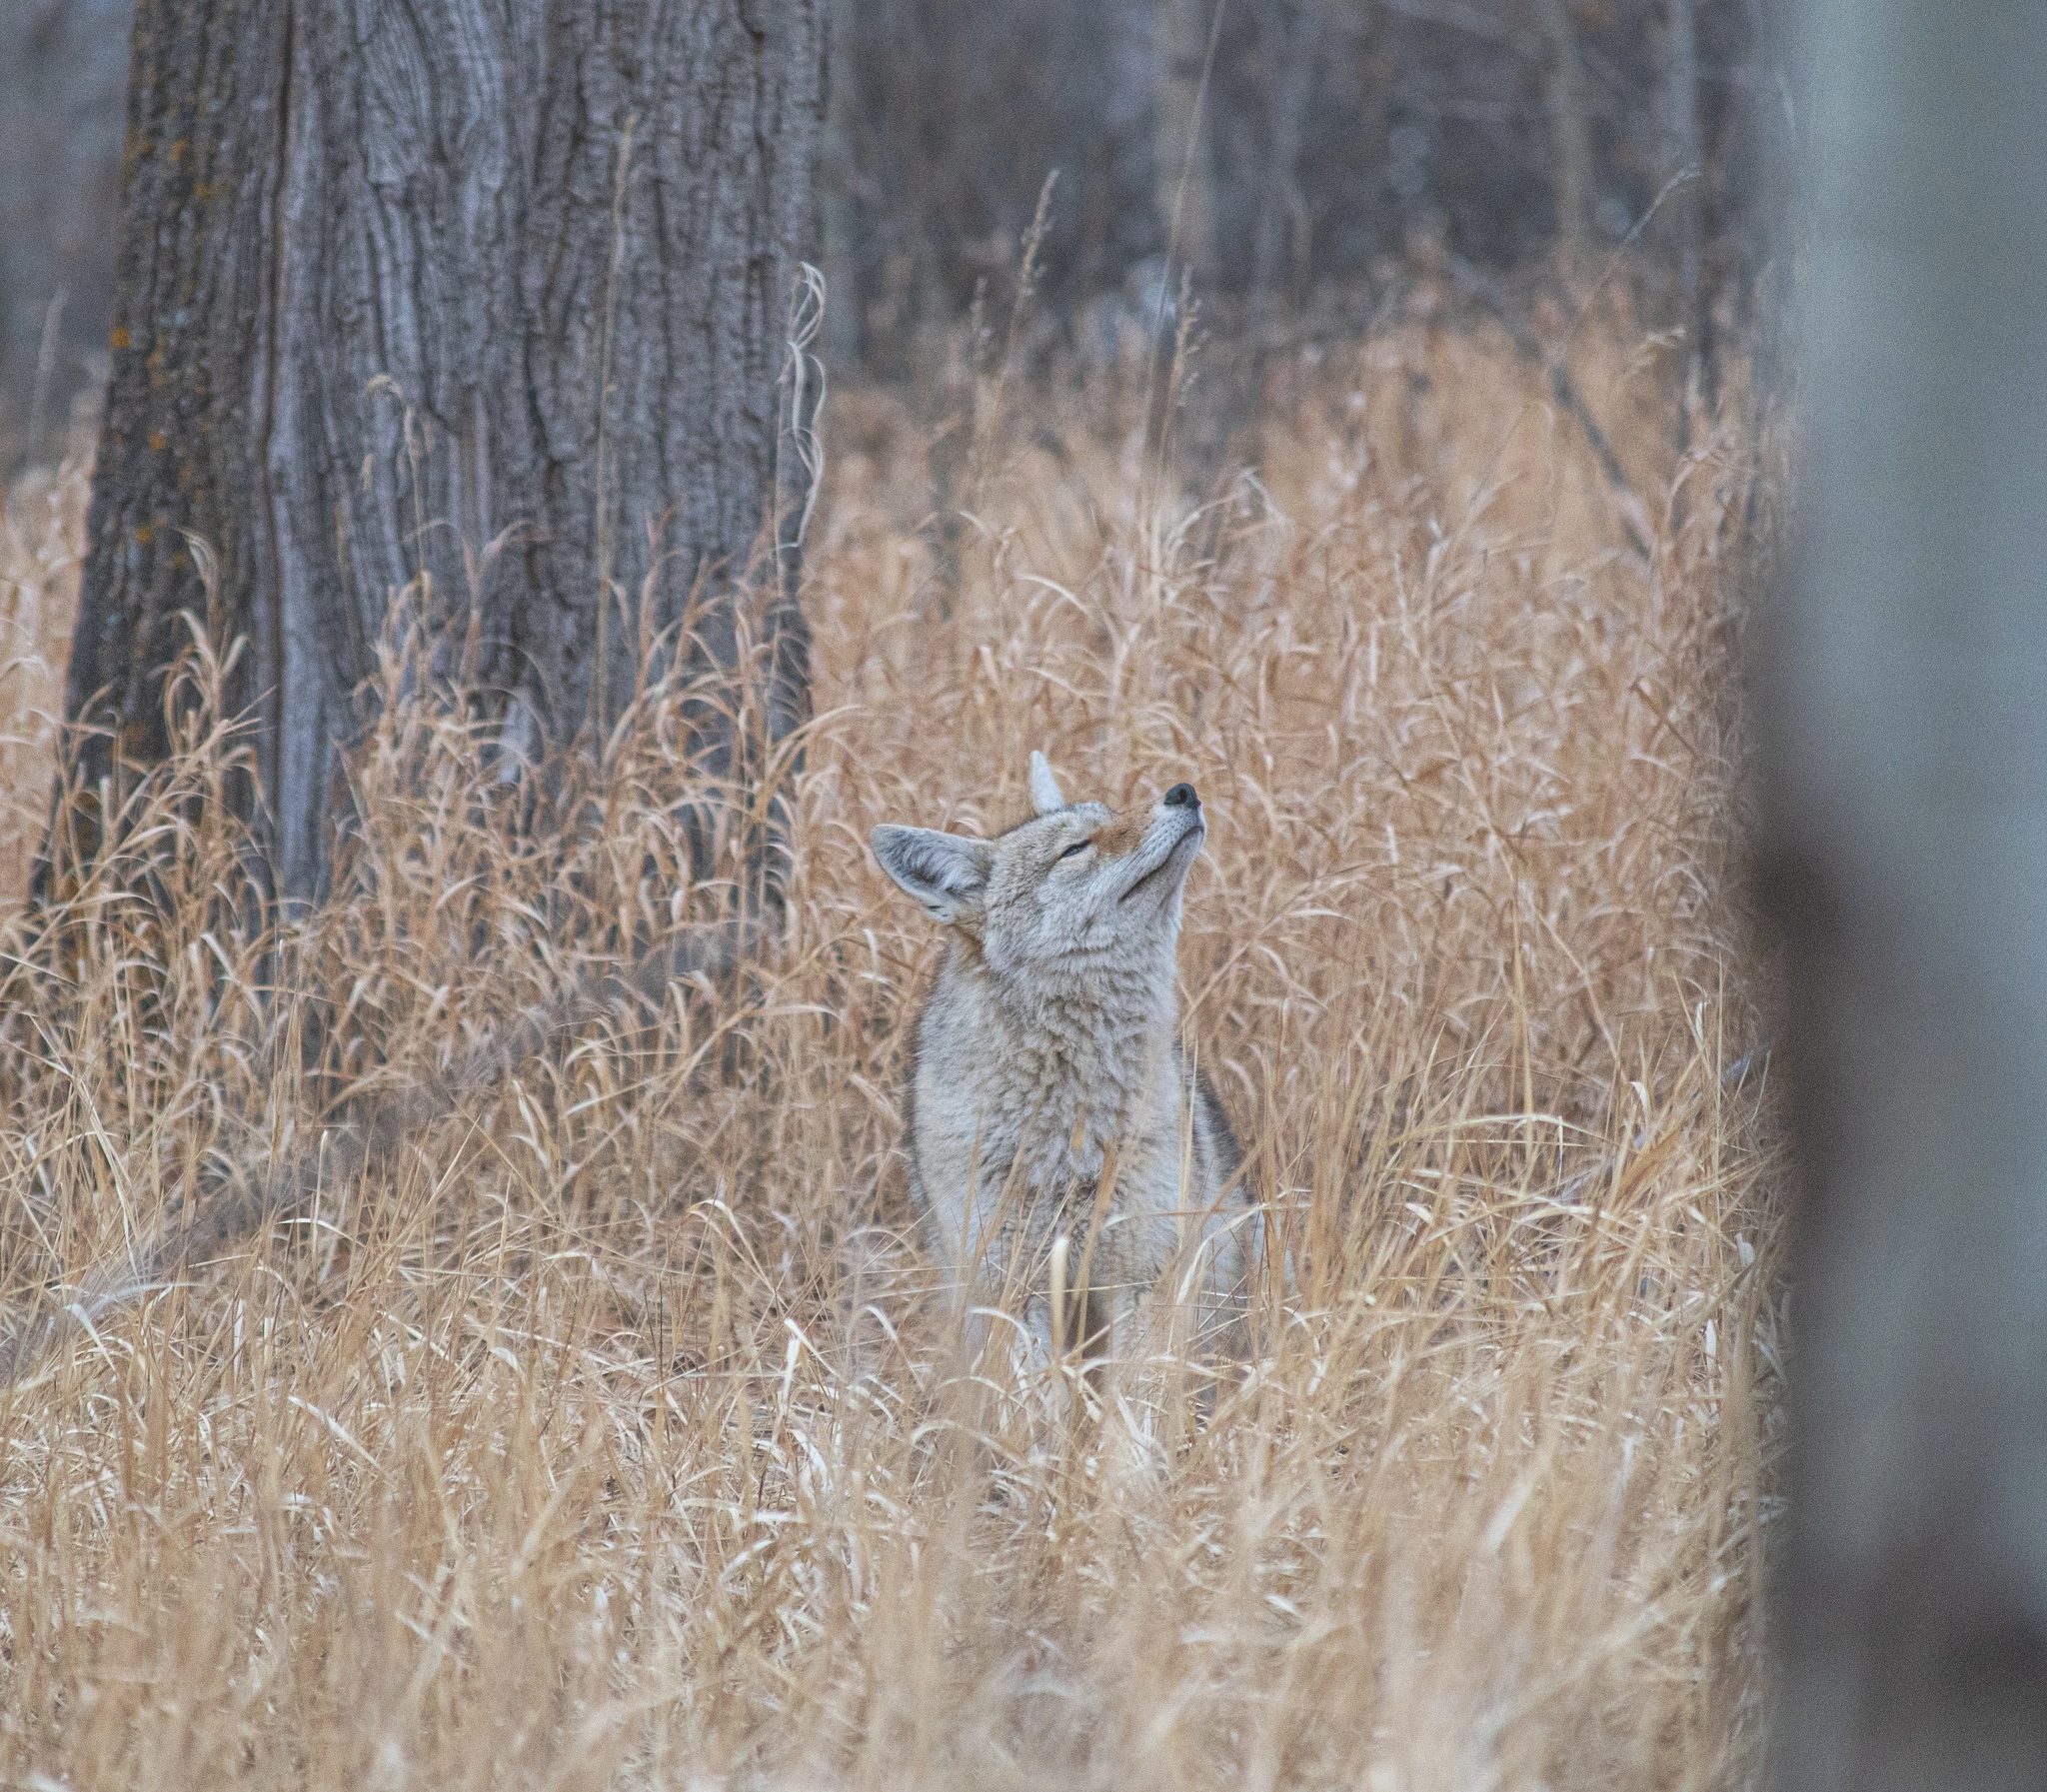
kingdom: Animalia
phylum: Chordata
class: Mammalia
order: Carnivora
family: Canidae
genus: Canis
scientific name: Canis latrans
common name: Coyote
